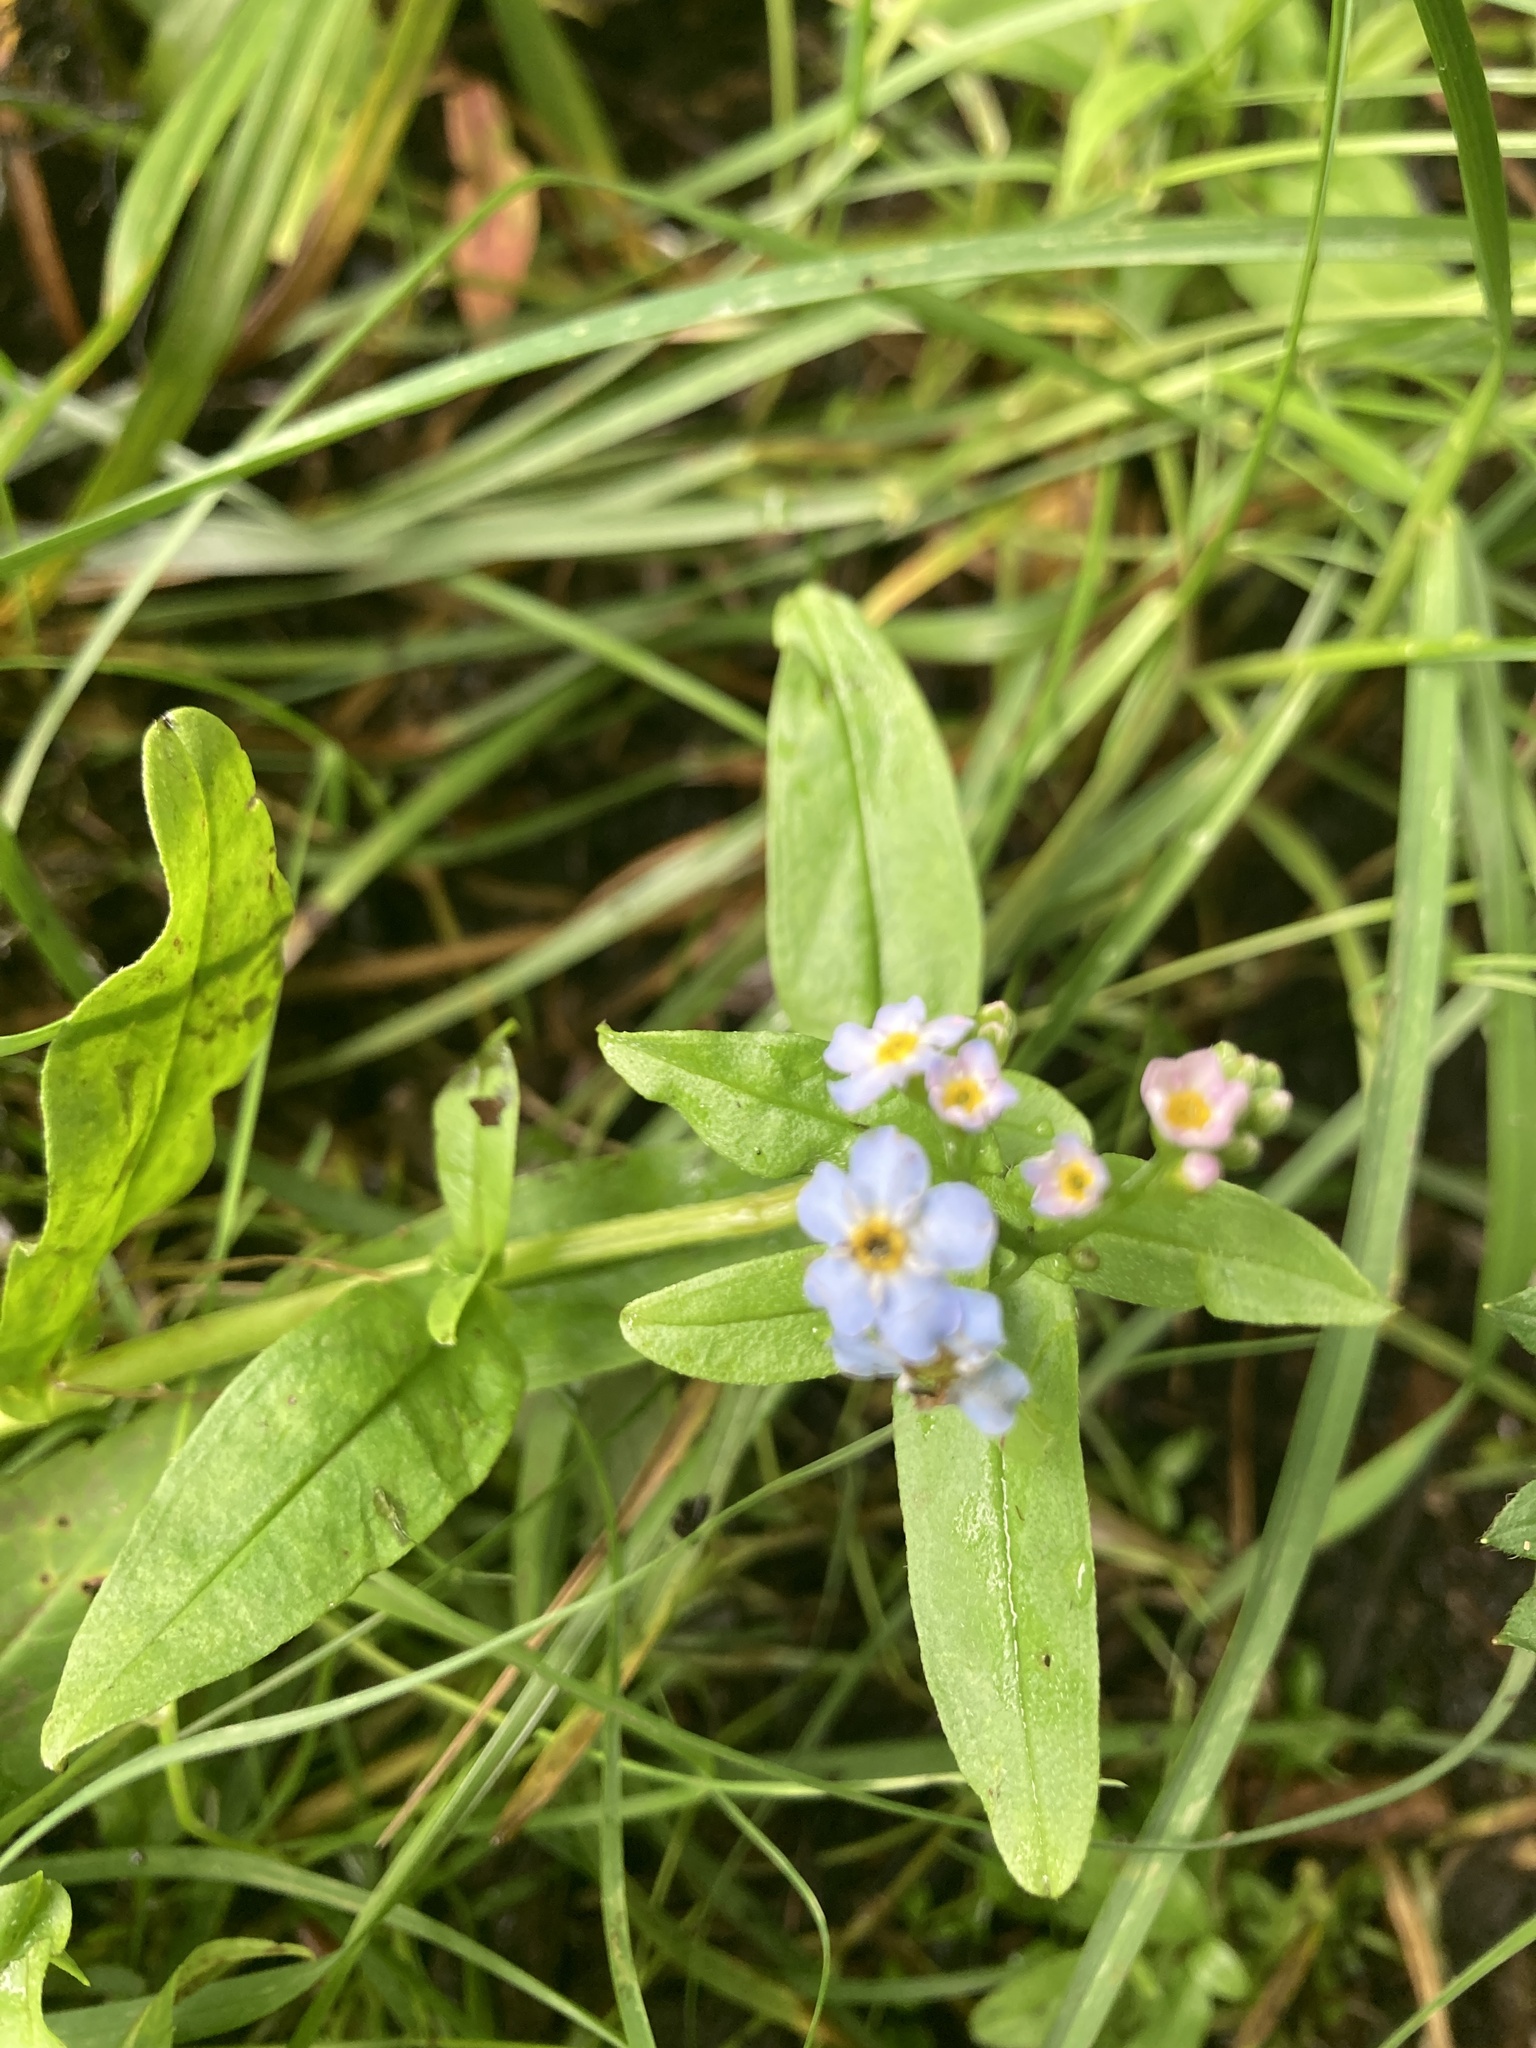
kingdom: Plantae
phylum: Tracheophyta
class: Magnoliopsida
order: Boraginales
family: Boraginaceae
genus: Myosotis
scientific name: Myosotis scorpioides
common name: Water forget-me-not
